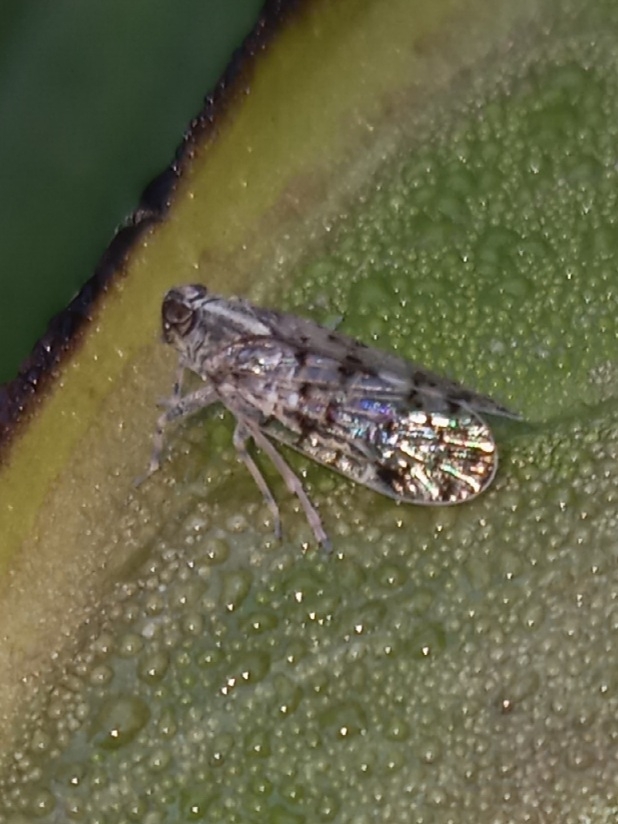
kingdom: Animalia
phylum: Arthropoda
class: Insecta
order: Hemiptera
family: Cixiidae
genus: Melanoliarus
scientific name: Melanoliarus placitus
